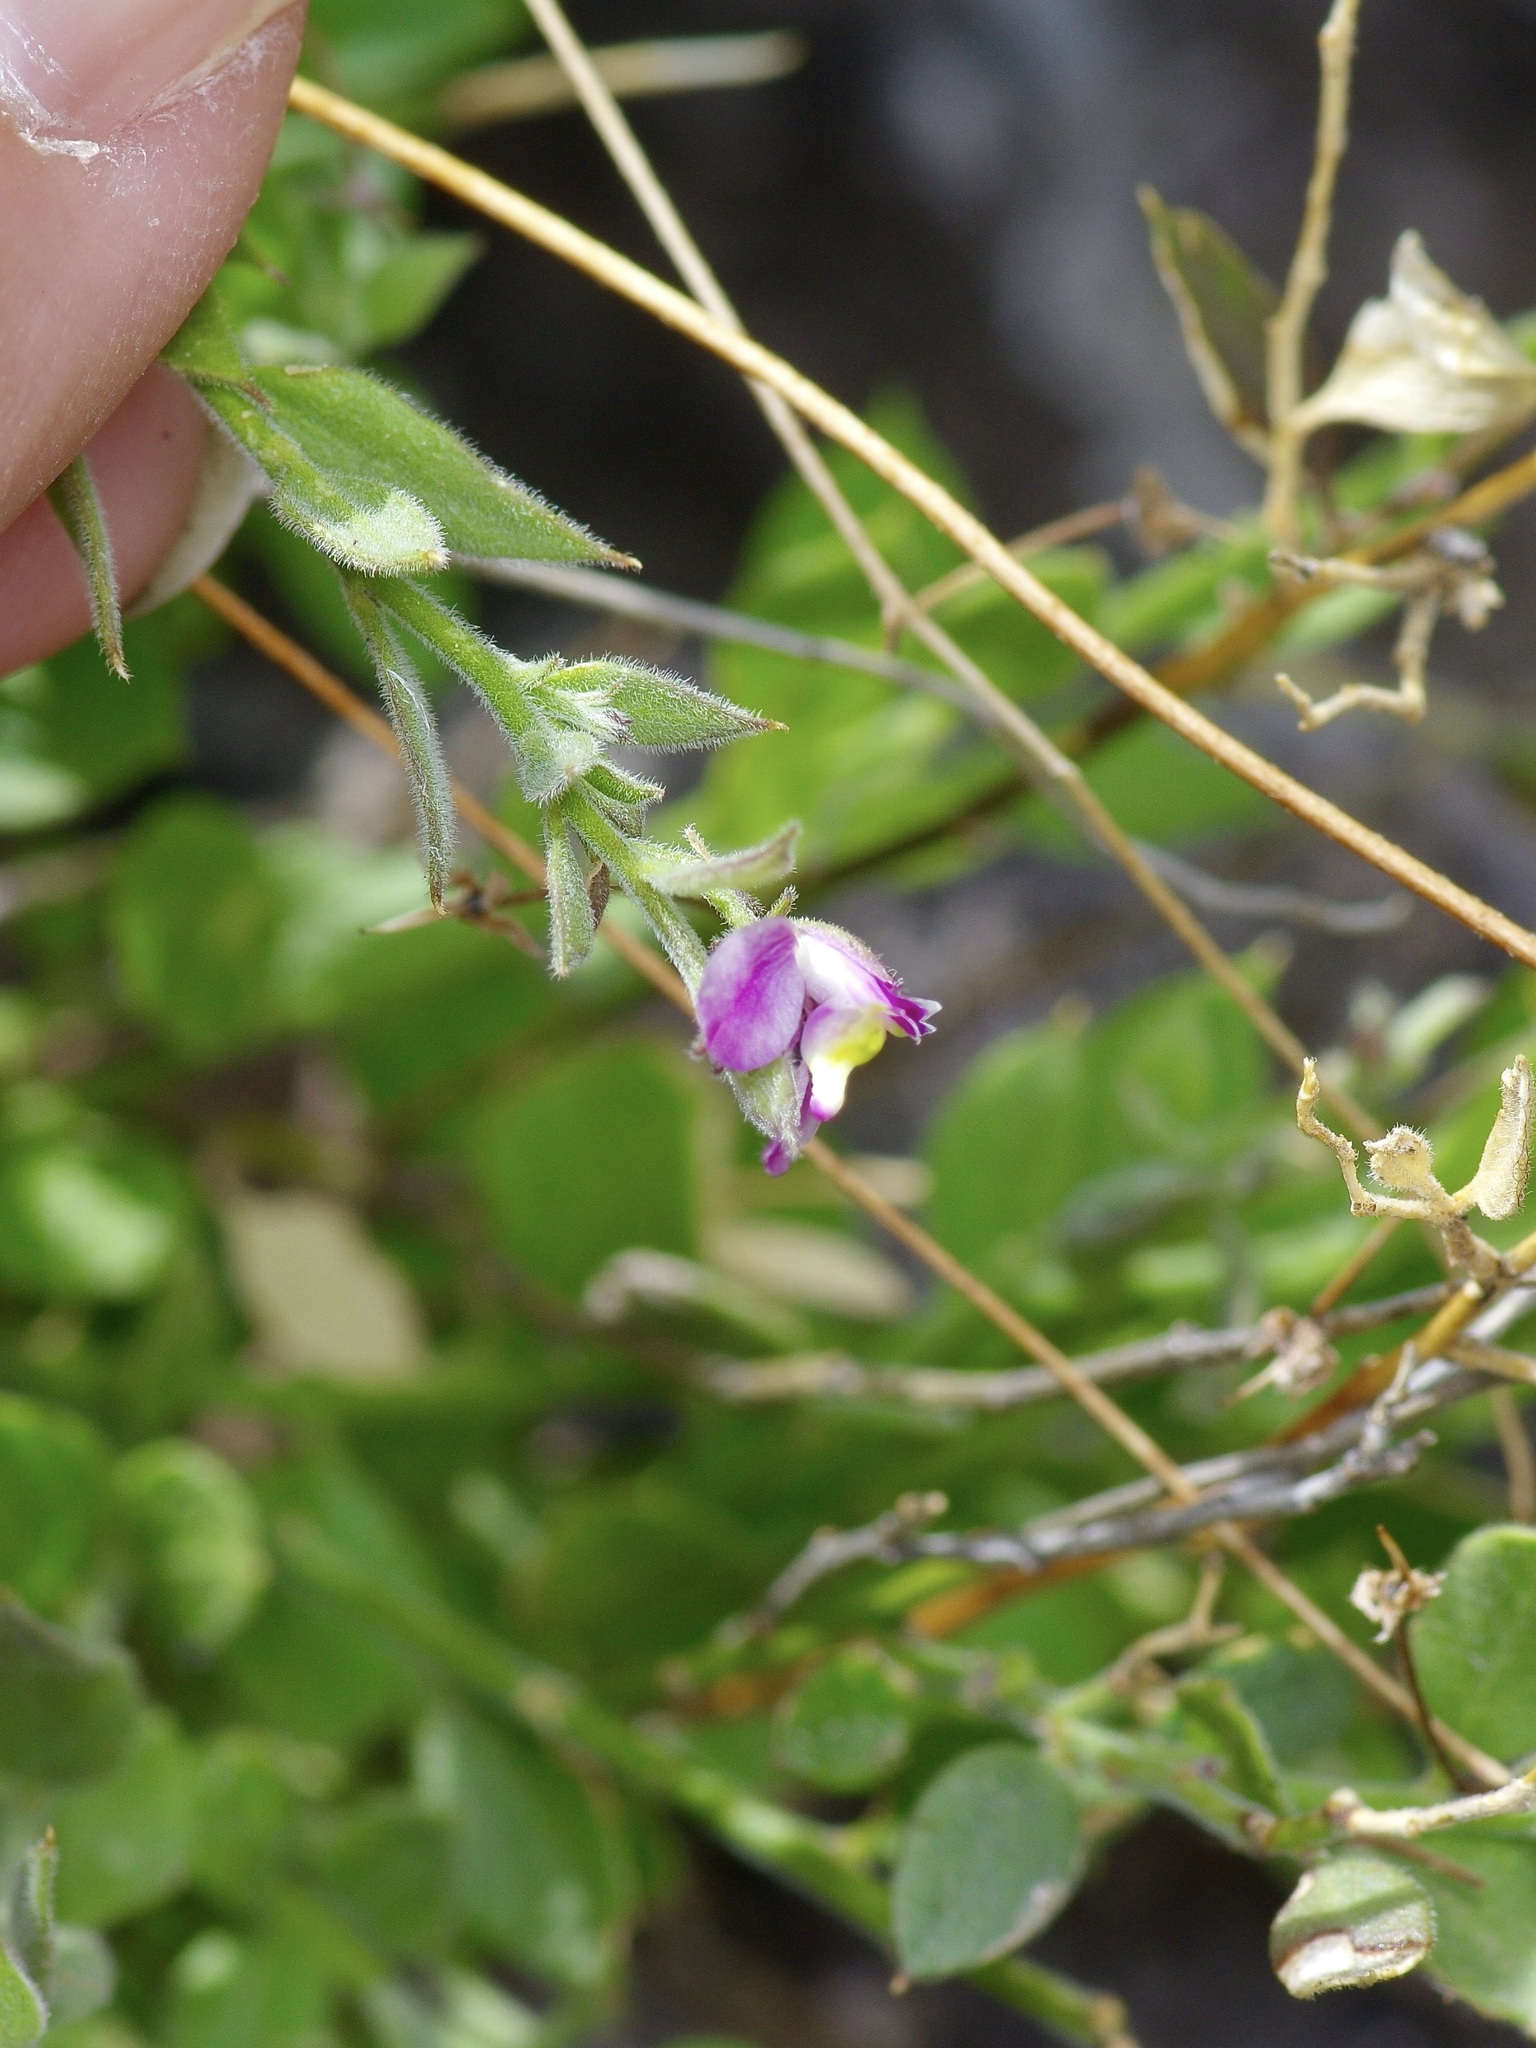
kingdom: Plantae
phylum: Tracheophyta
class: Magnoliopsida
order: Fabales
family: Polygalaceae
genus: Rhinotropis
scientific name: Rhinotropis lindheimeri
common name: Shrubby milkwort
